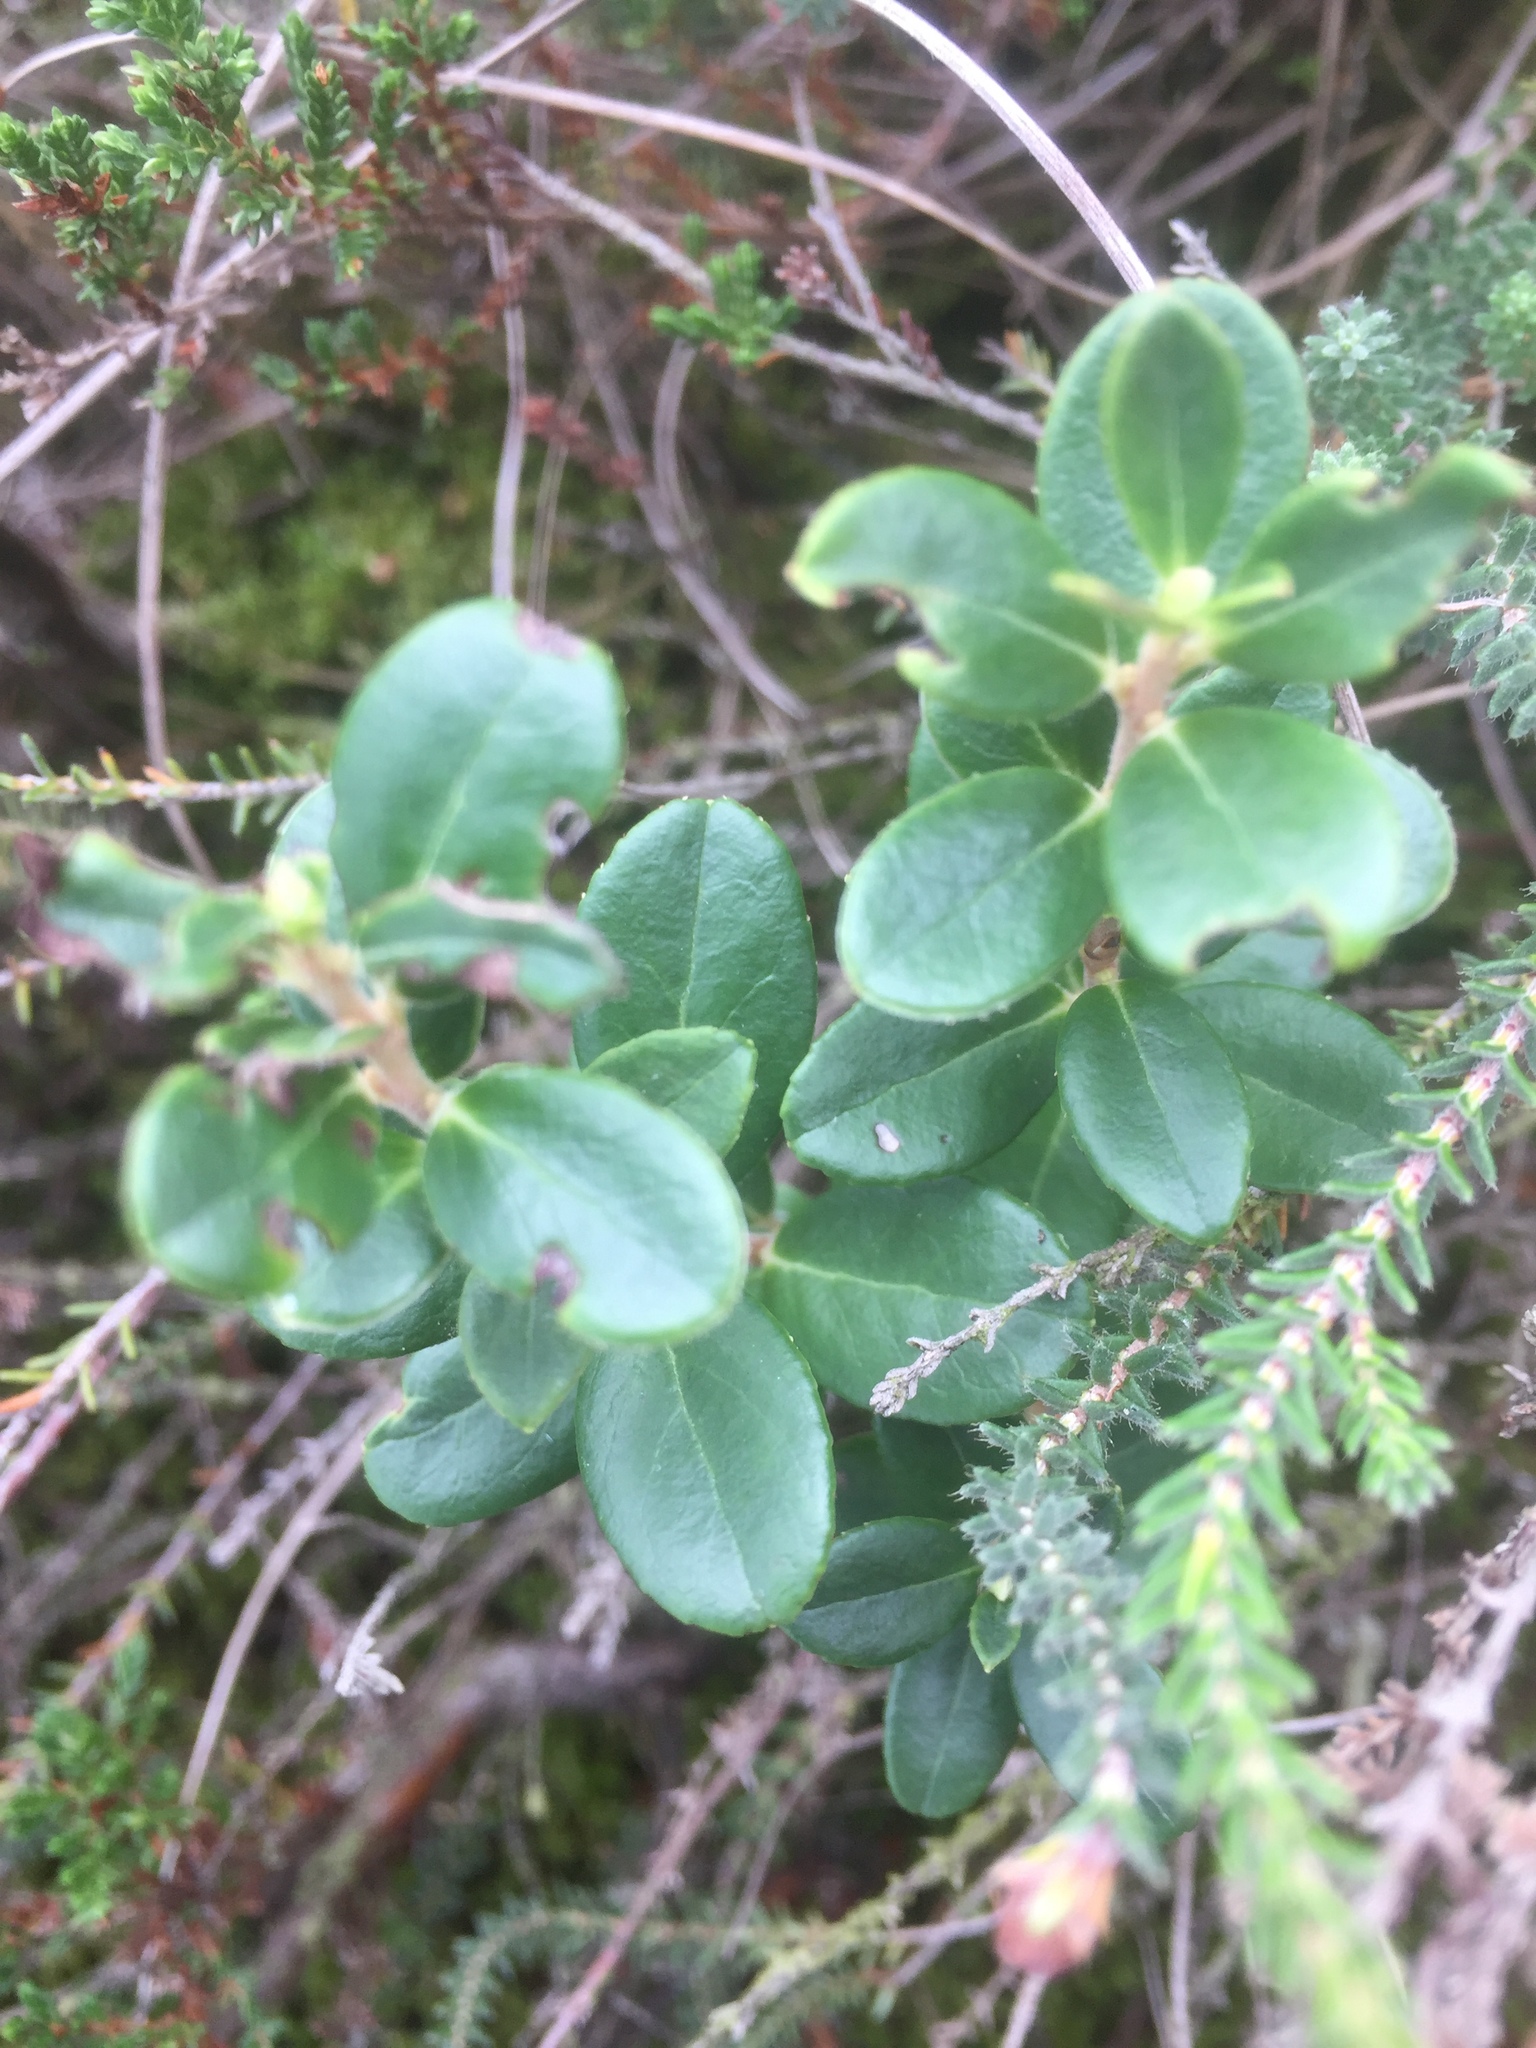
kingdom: Plantae
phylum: Tracheophyta
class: Magnoliopsida
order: Ericales
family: Ericaceae
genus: Vaccinium
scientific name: Vaccinium vitis-idaea
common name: Cowberry
